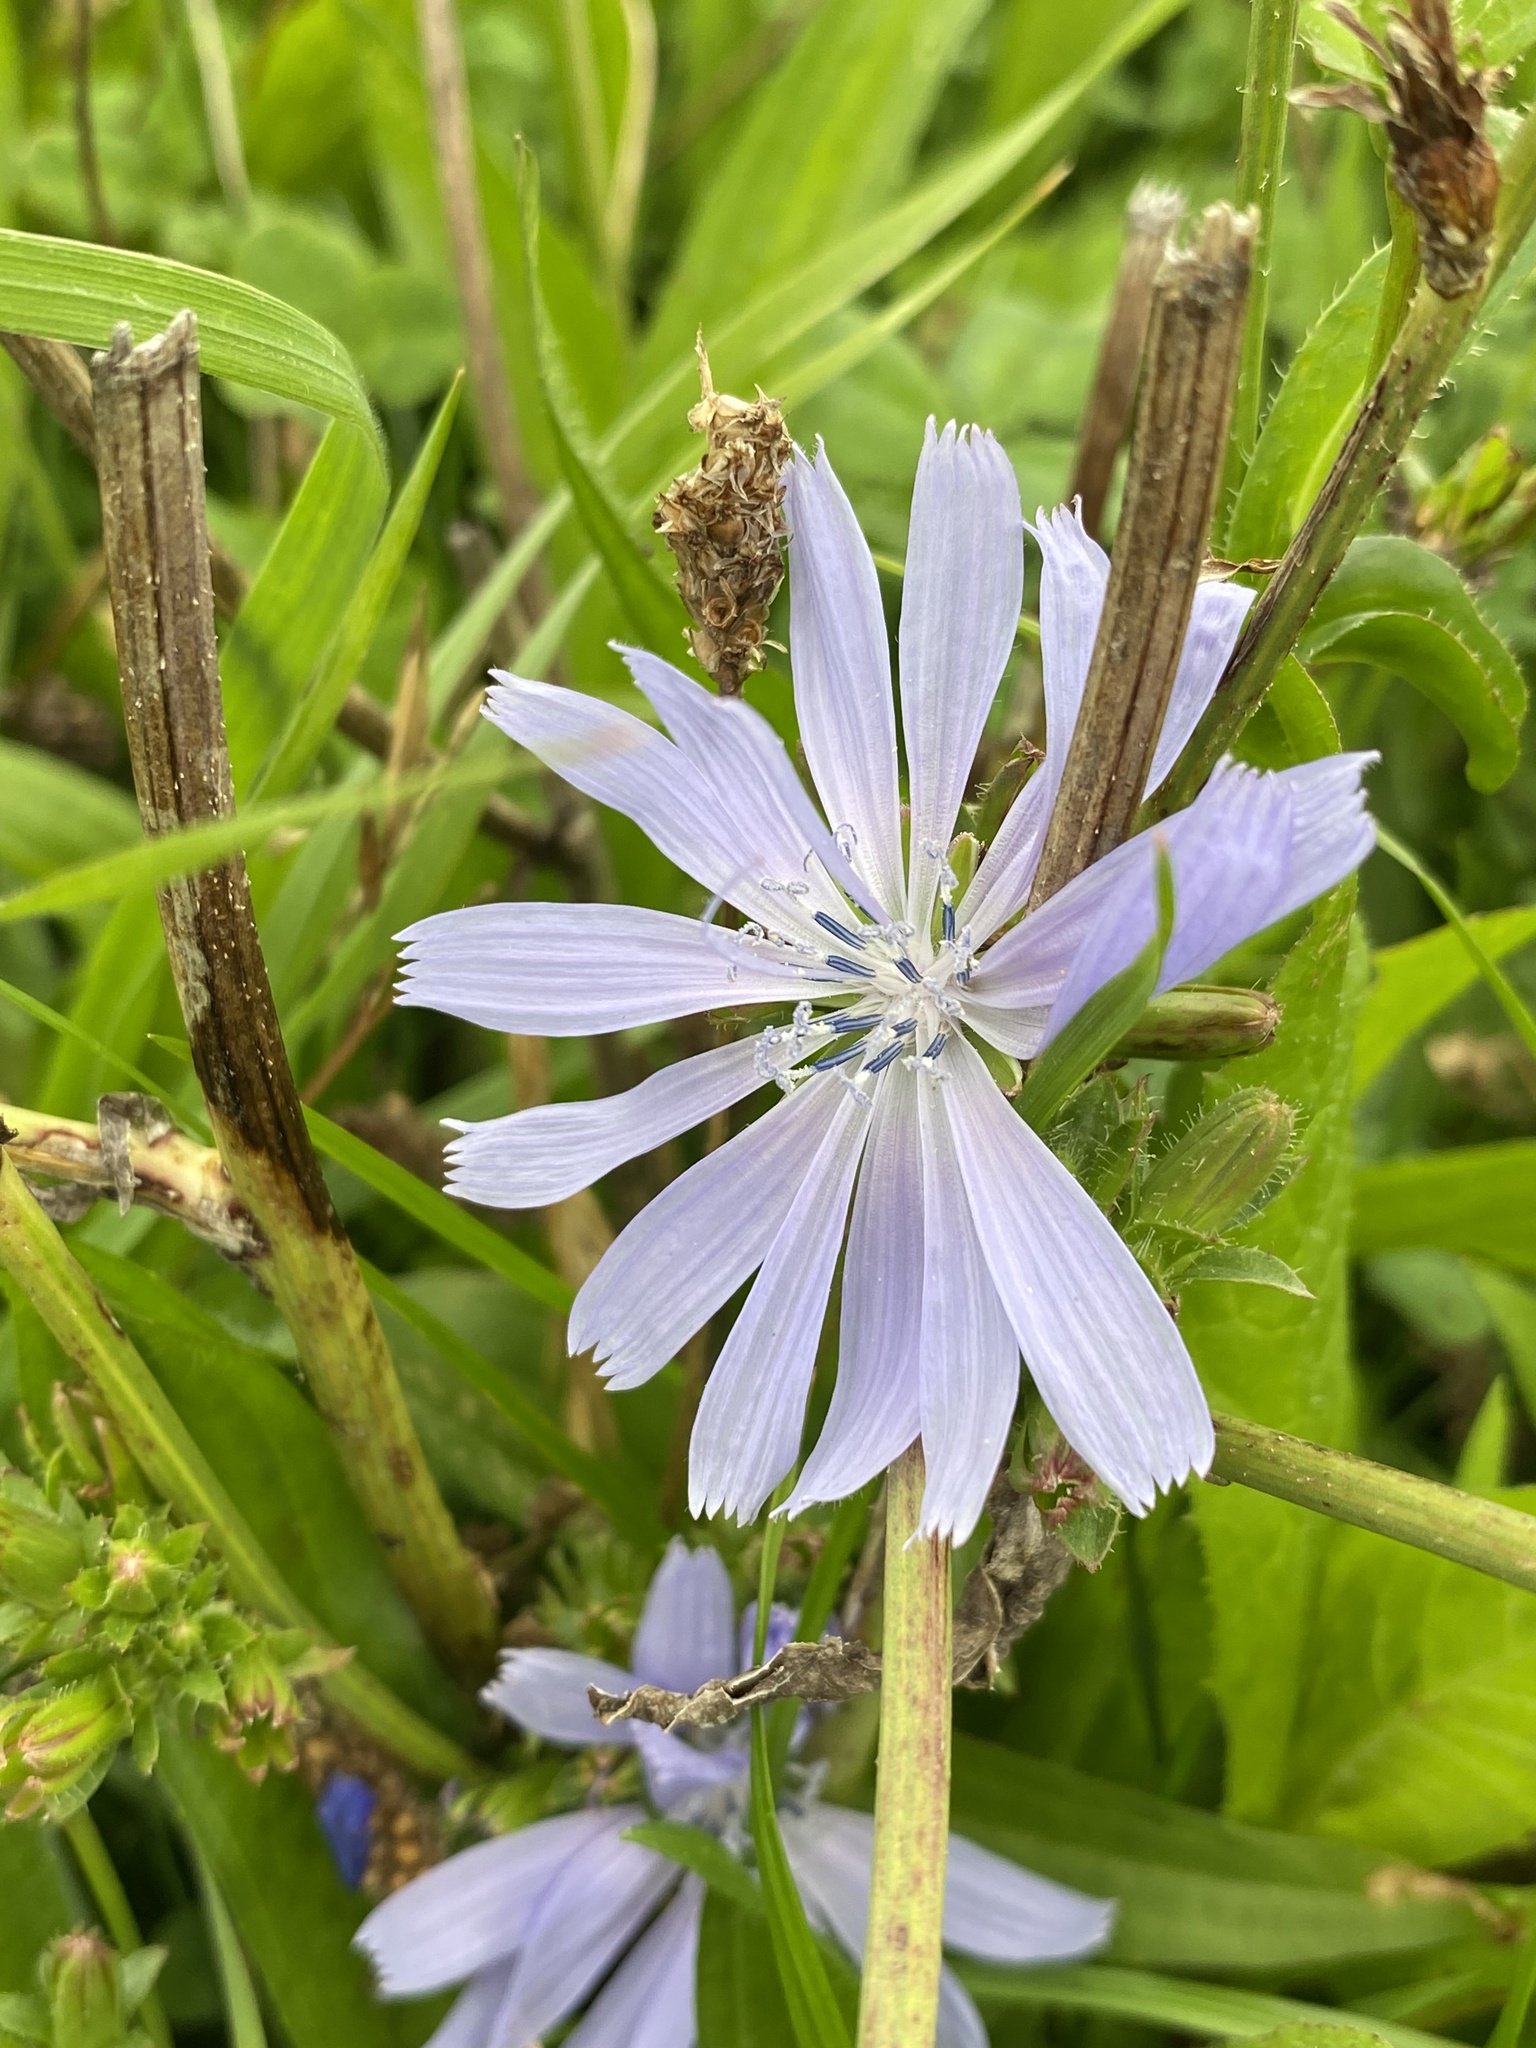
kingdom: Plantae
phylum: Tracheophyta
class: Magnoliopsida
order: Asterales
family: Asteraceae
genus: Cichorium
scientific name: Cichorium intybus
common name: Chicory
